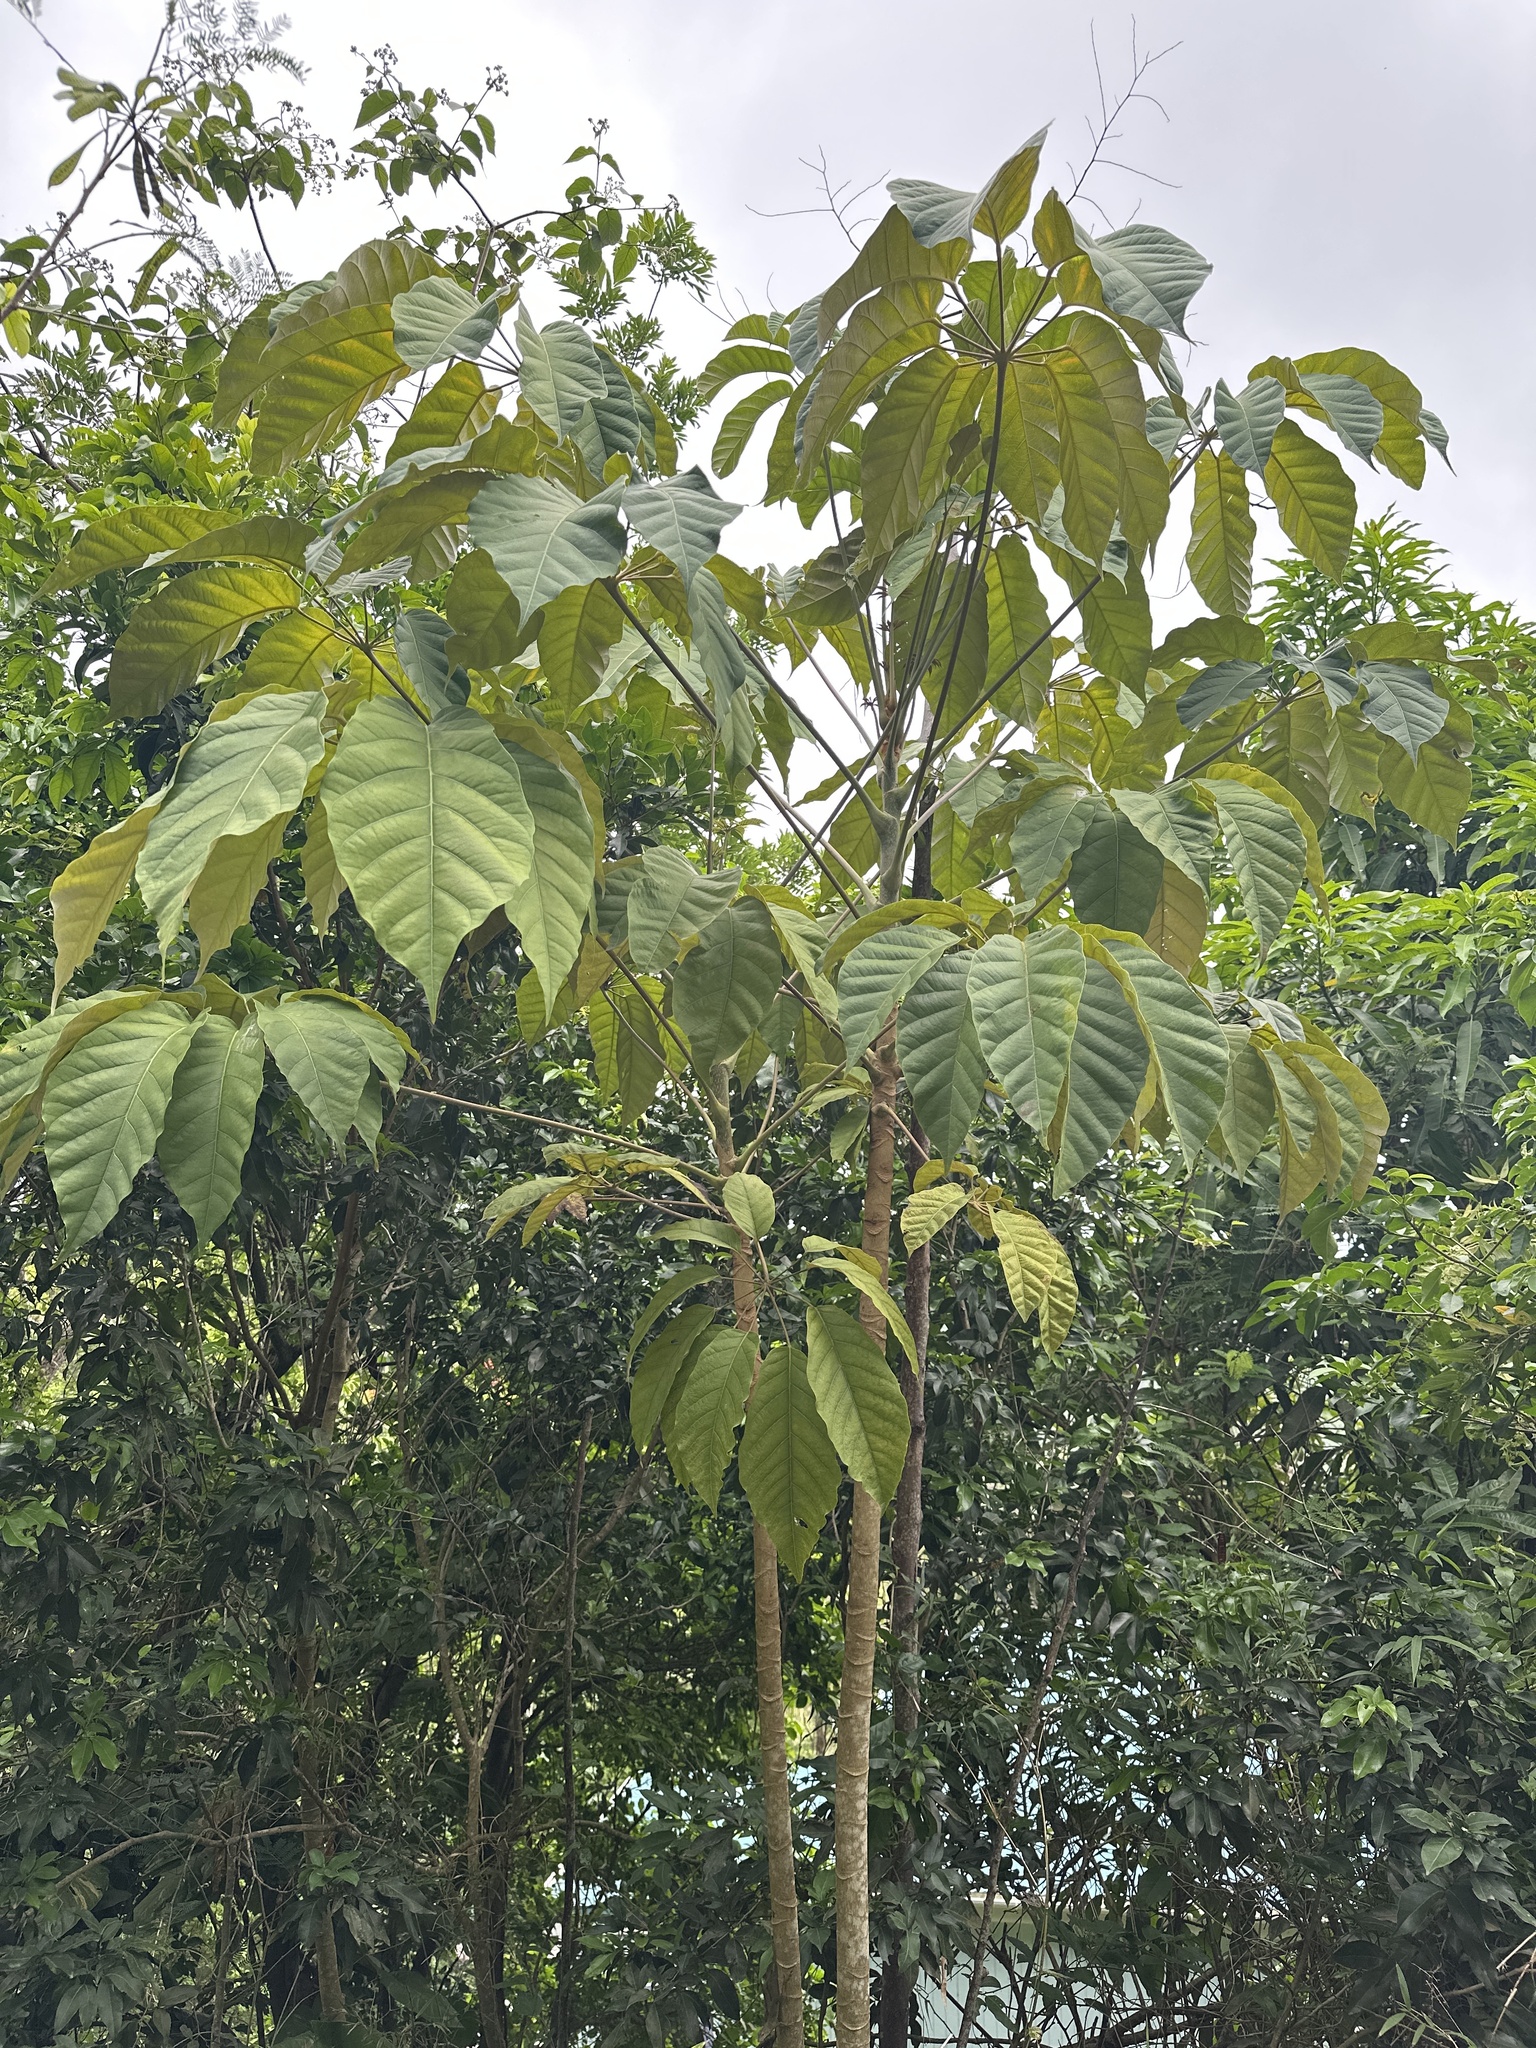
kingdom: Plantae
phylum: Tracheophyta
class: Magnoliopsida
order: Apiales
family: Araliaceae
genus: Didymopanax
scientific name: Didymopanax morototoni
